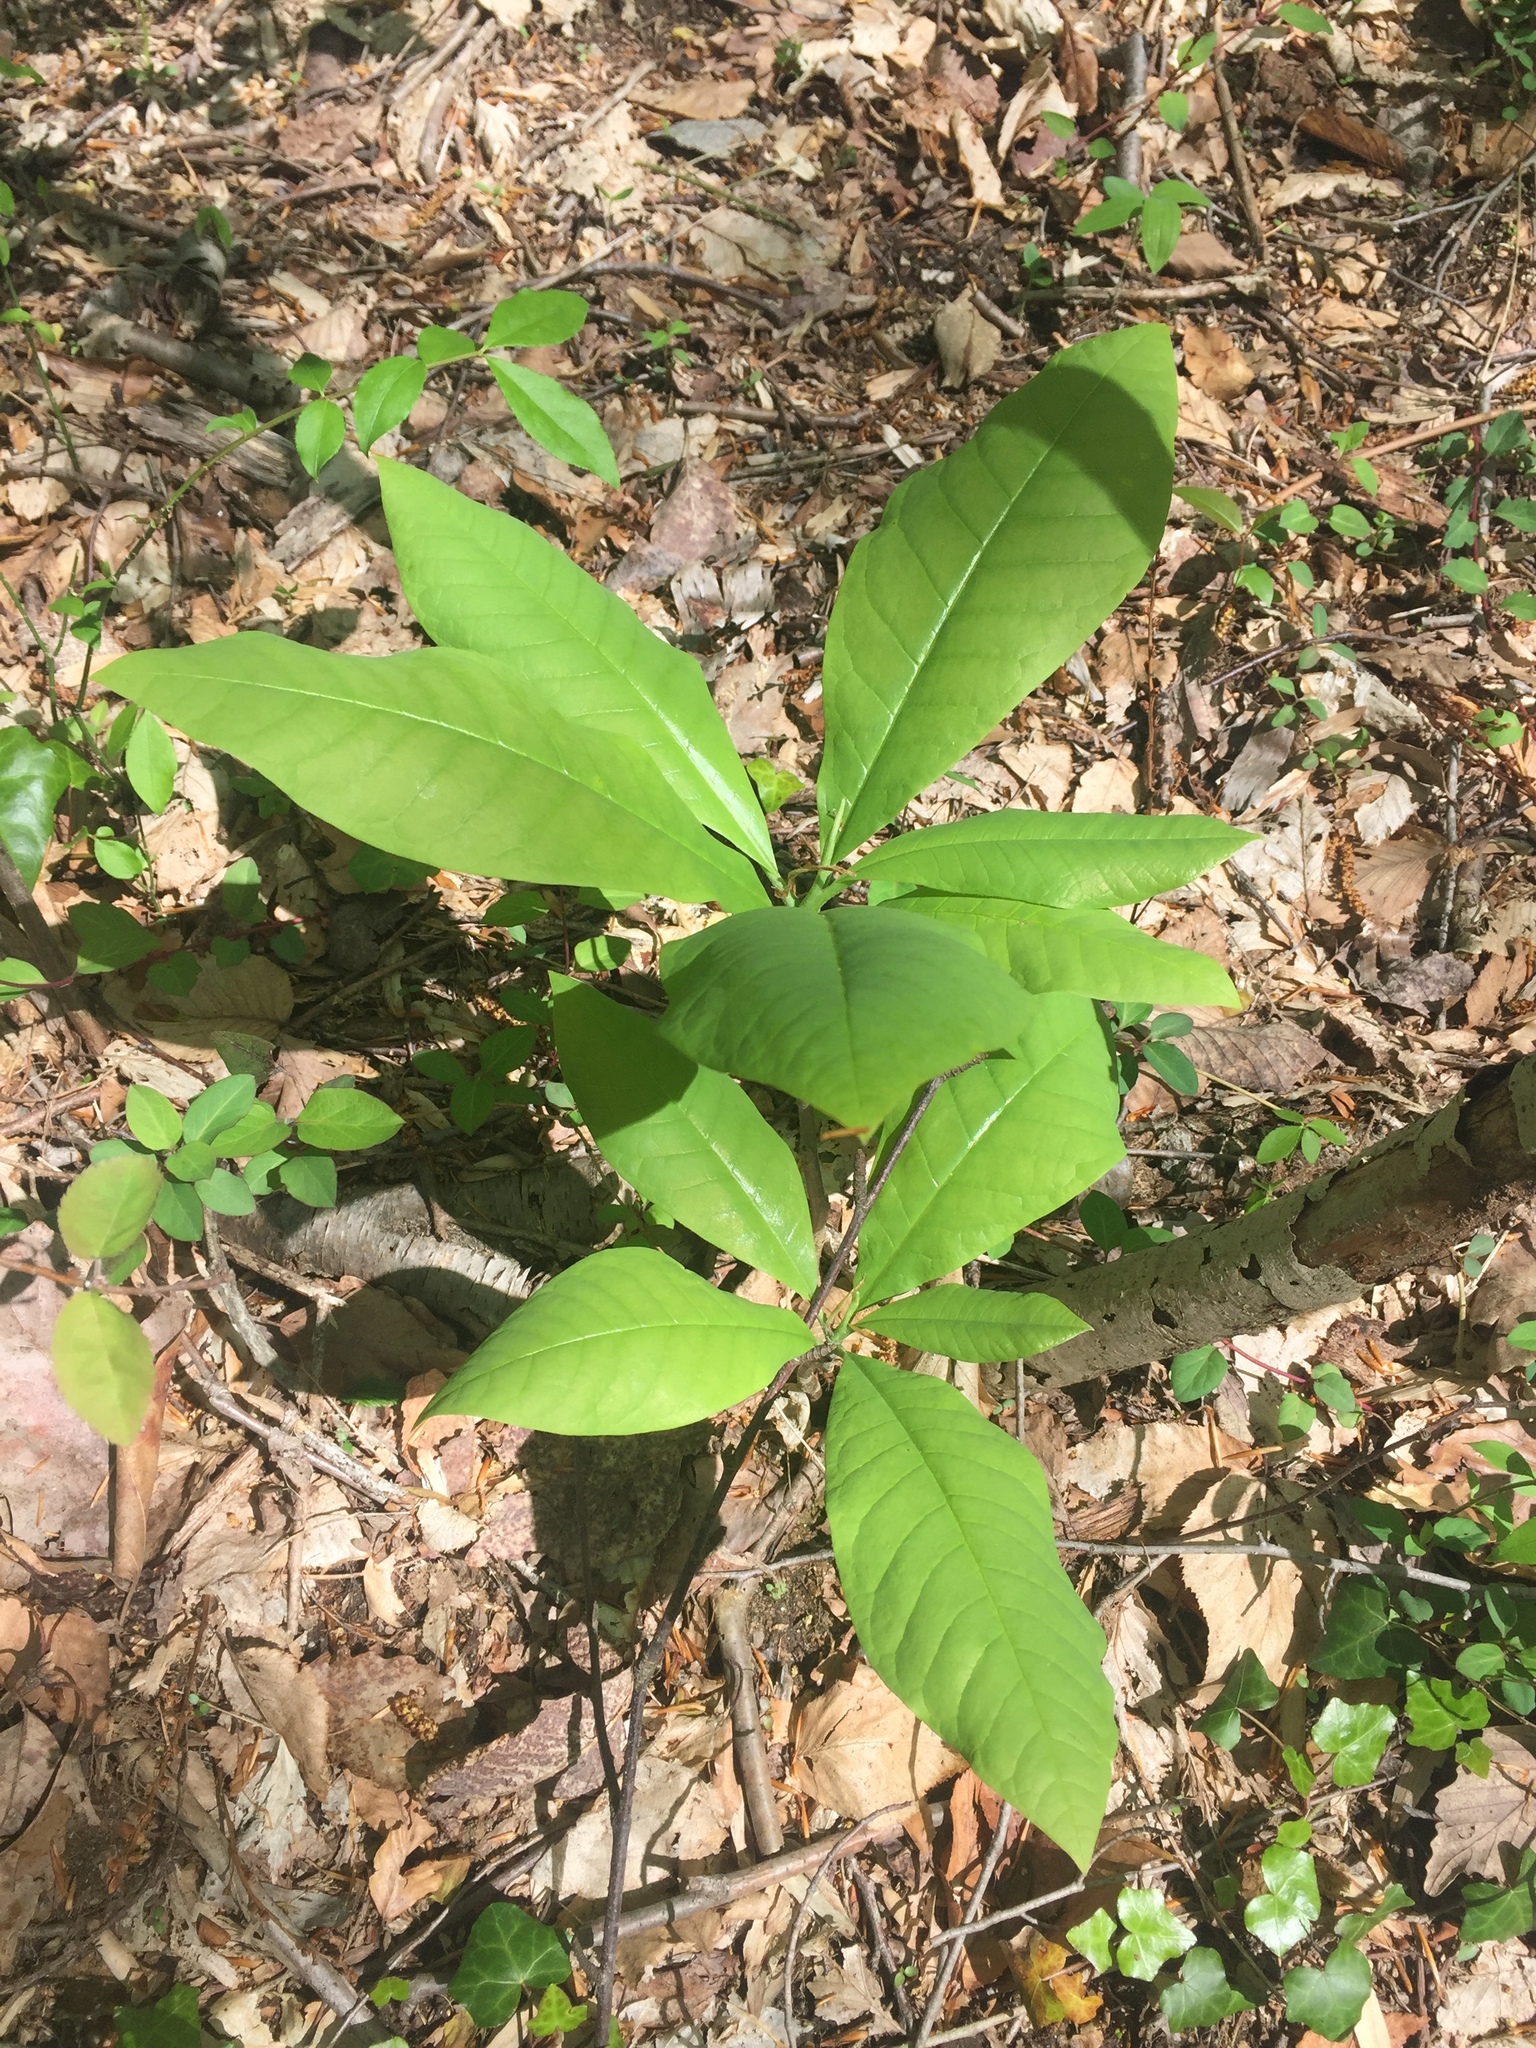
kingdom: Plantae
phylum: Tracheophyta
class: Magnoliopsida
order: Magnoliales
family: Magnoliaceae
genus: Magnolia
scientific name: Magnolia tripetala
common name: Umbrella magnolia
